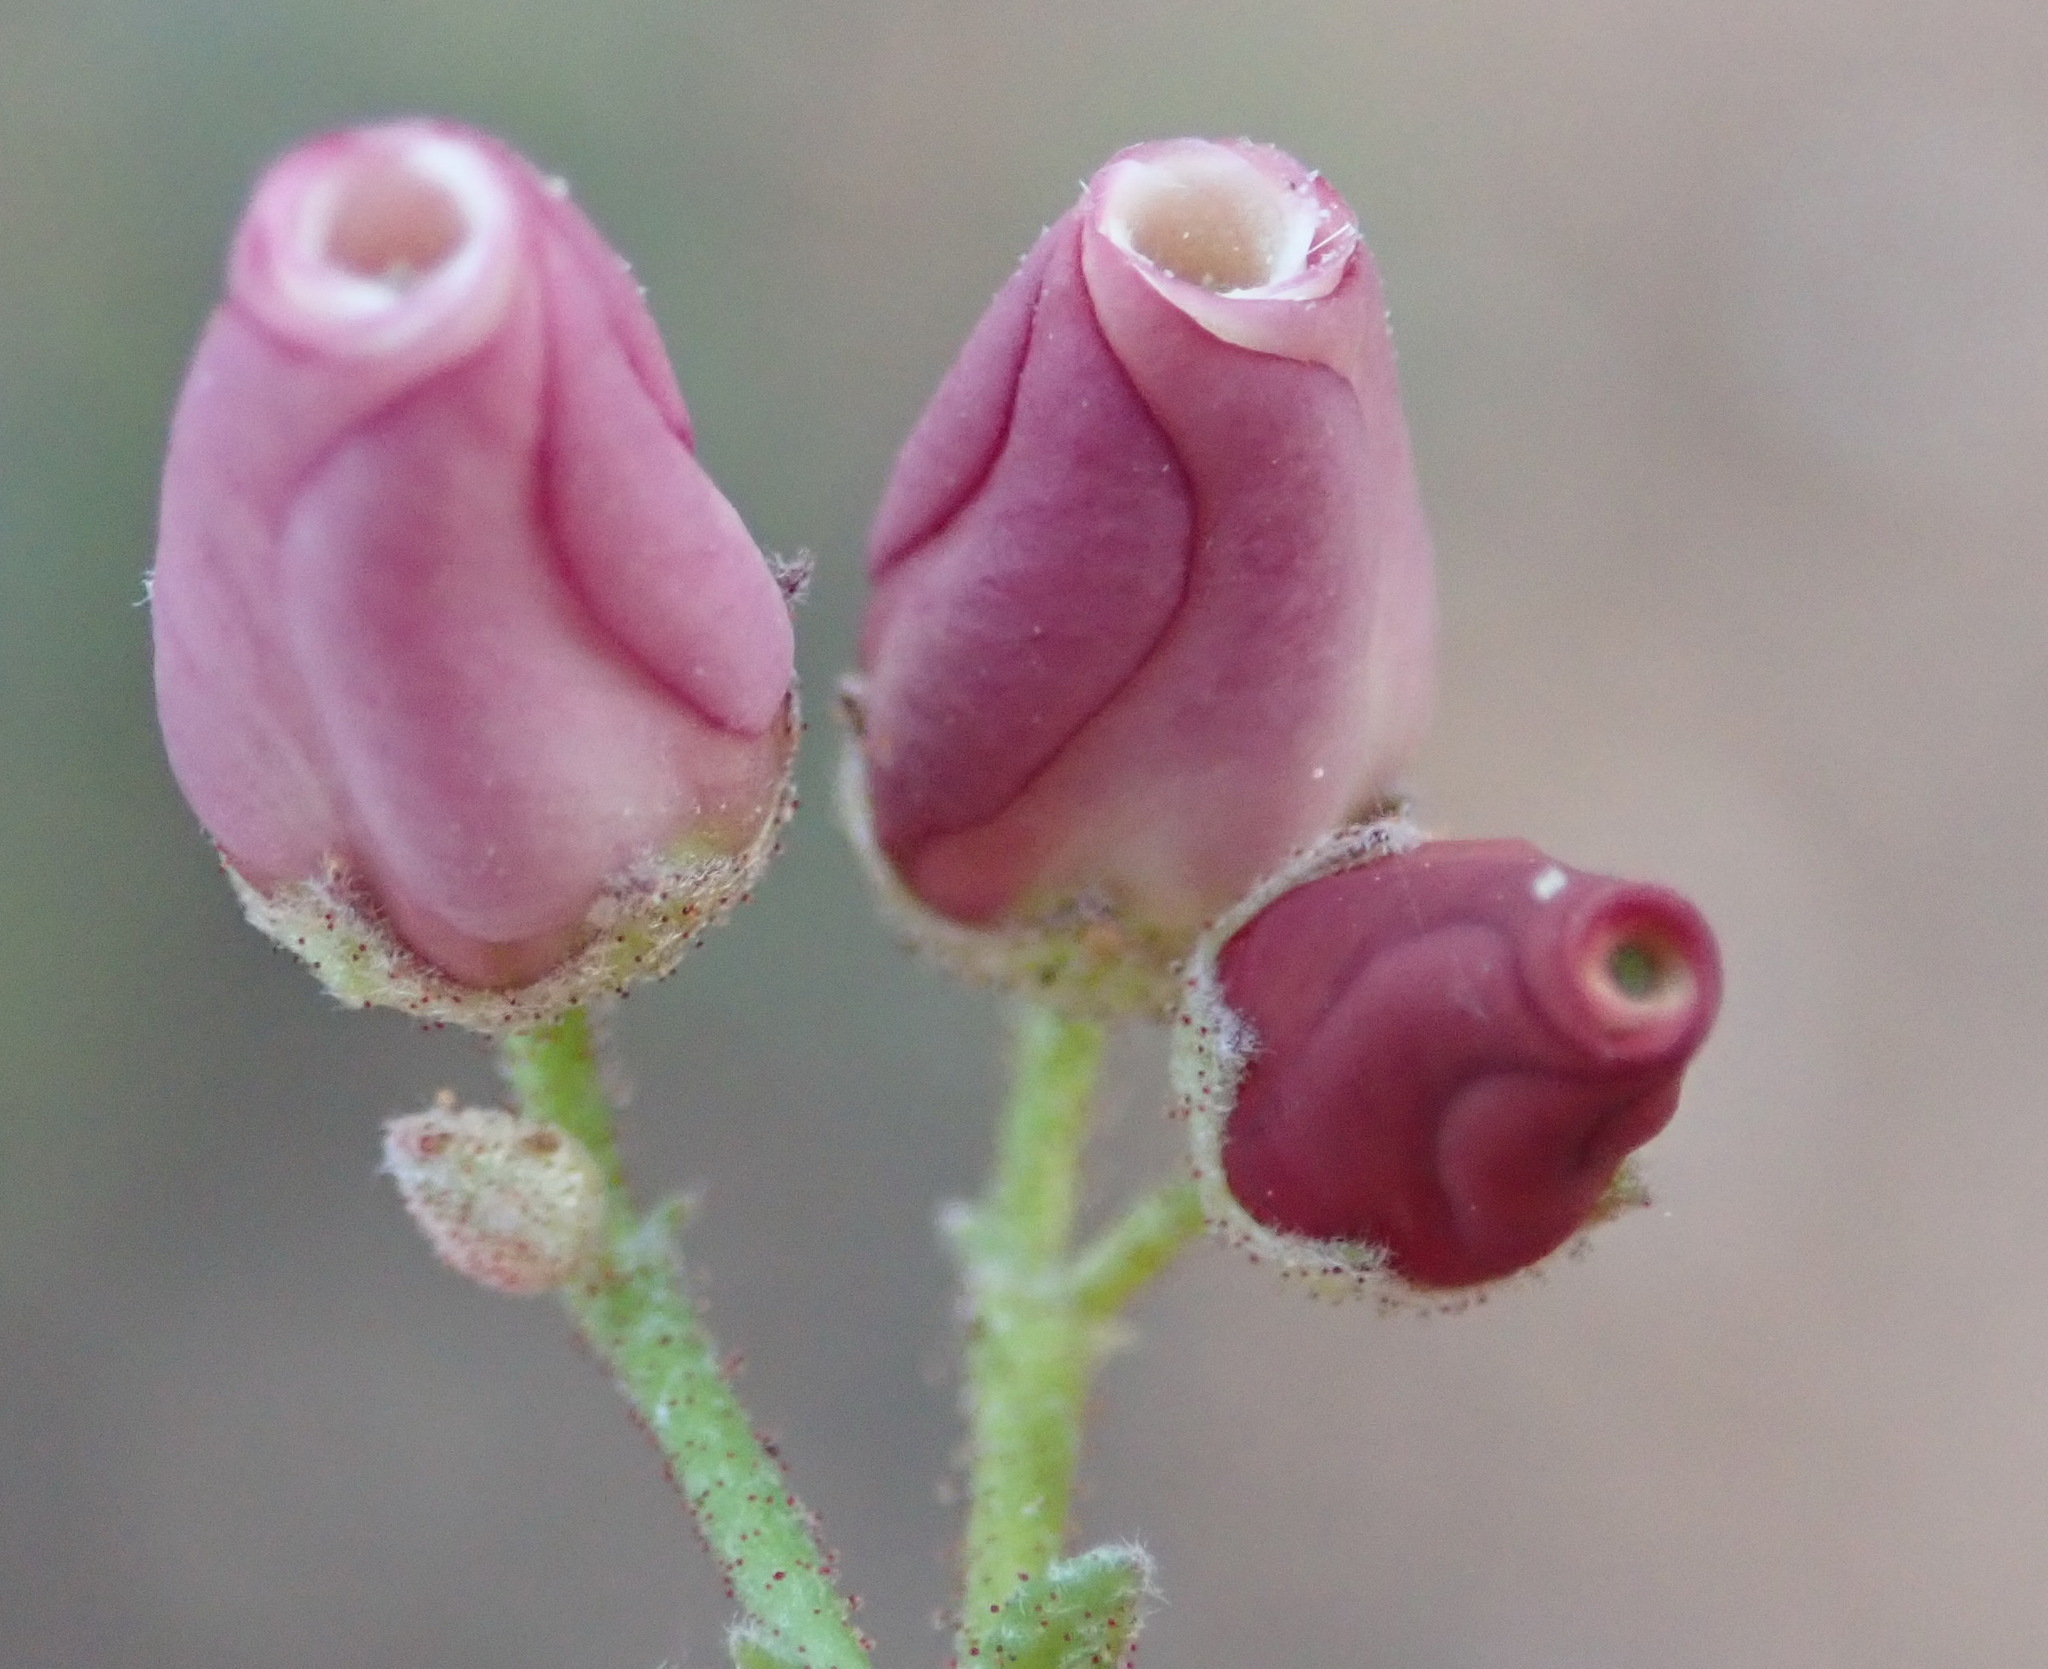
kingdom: Plantae
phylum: Tracheophyta
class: Magnoliopsida
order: Malvales
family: Malvaceae
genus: Hermannia
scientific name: Hermannia pulverata
